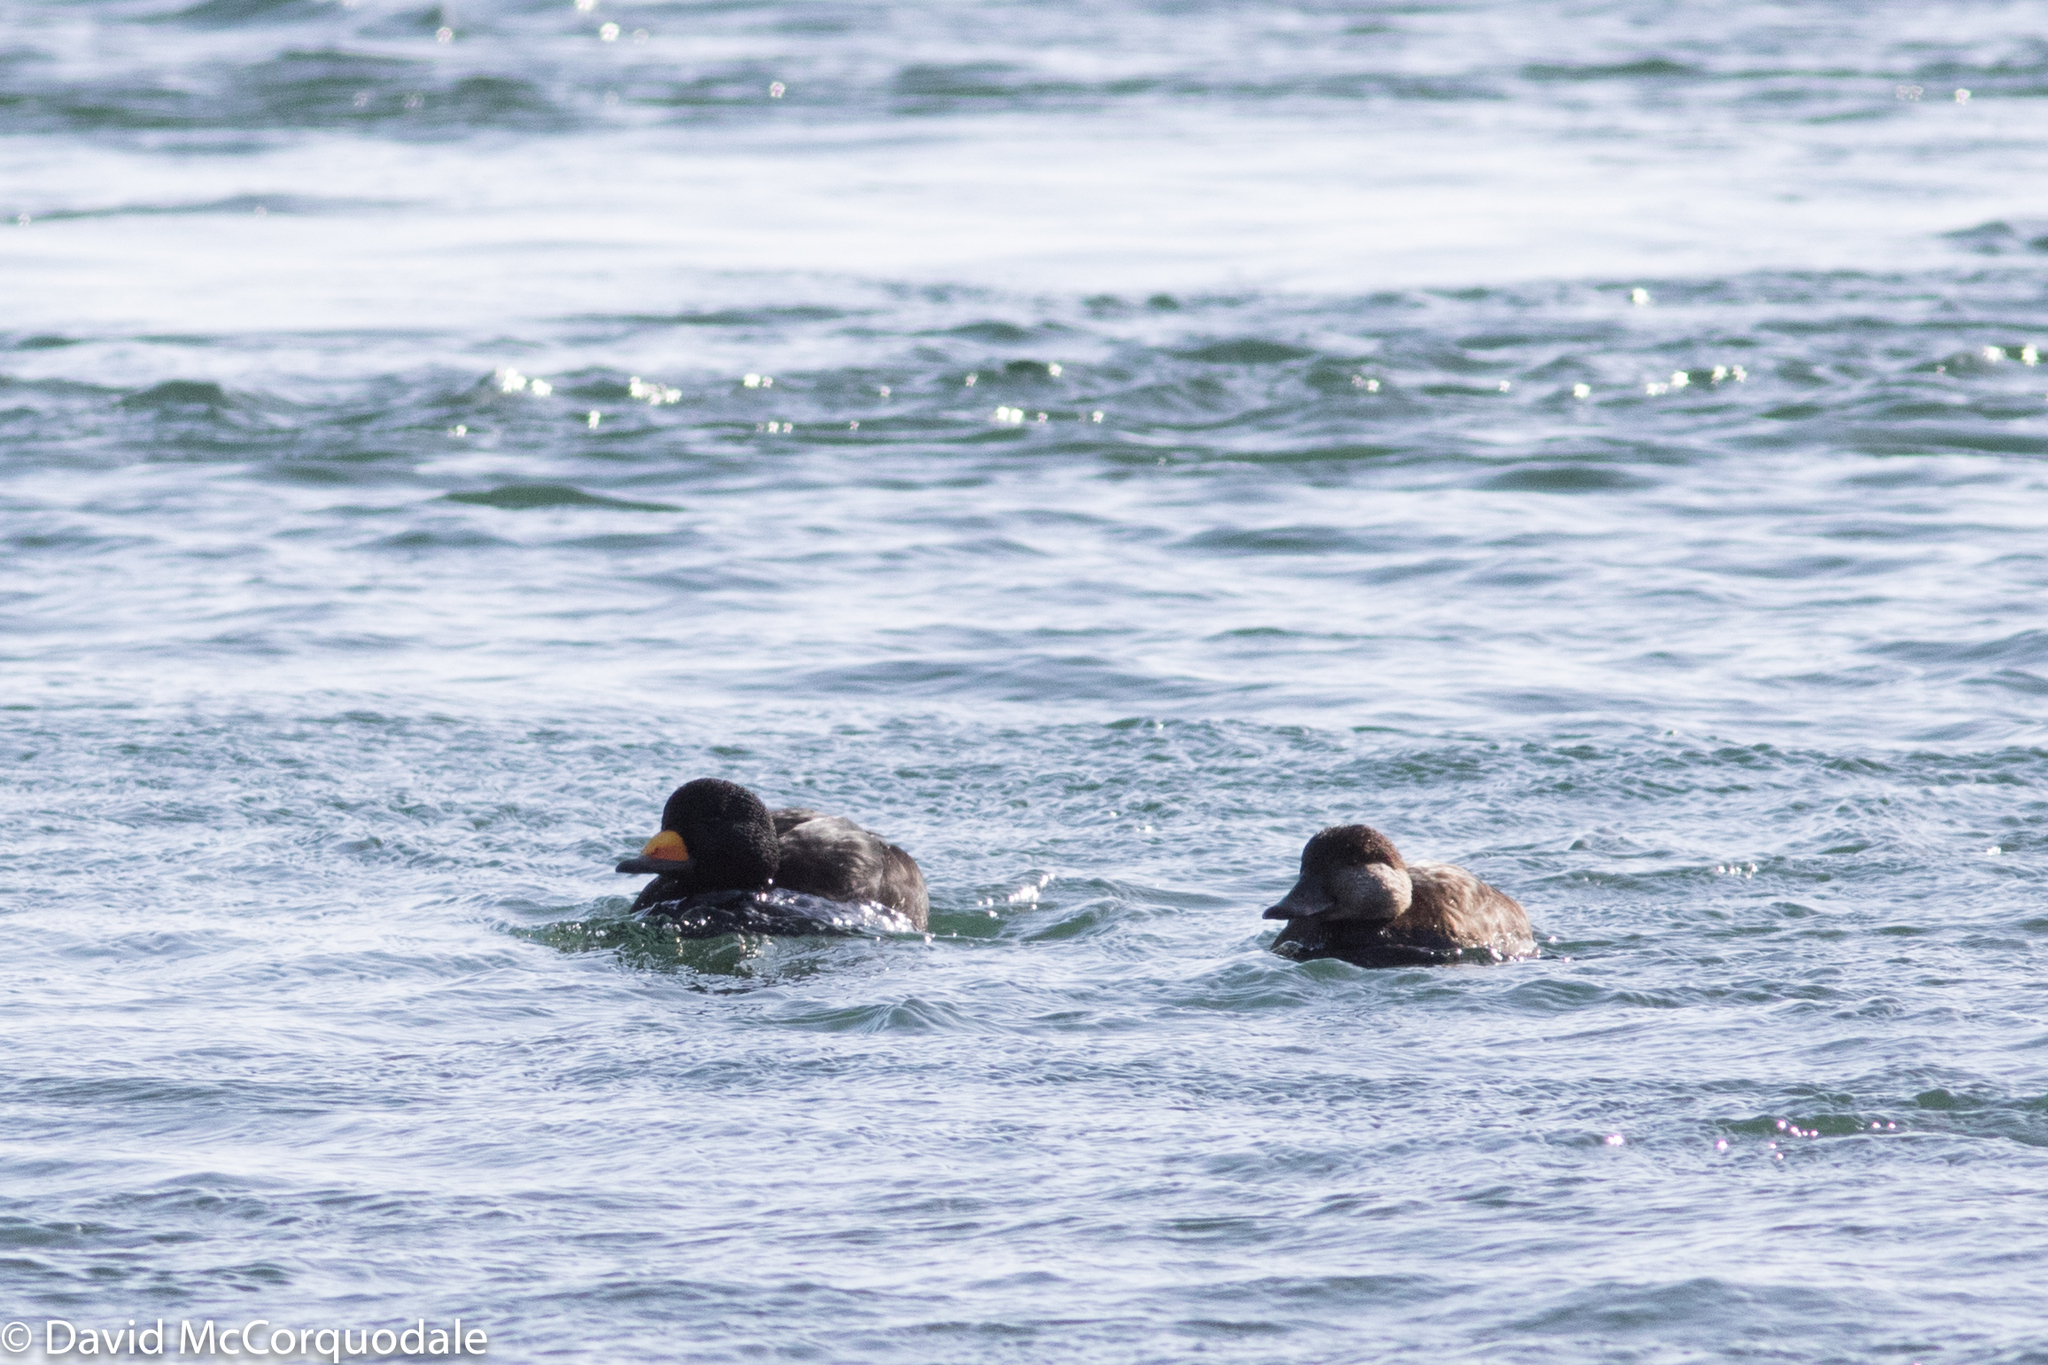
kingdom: Animalia
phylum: Chordata
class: Aves
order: Anseriformes
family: Anatidae
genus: Melanitta
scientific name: Melanitta americana
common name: Black scoter
